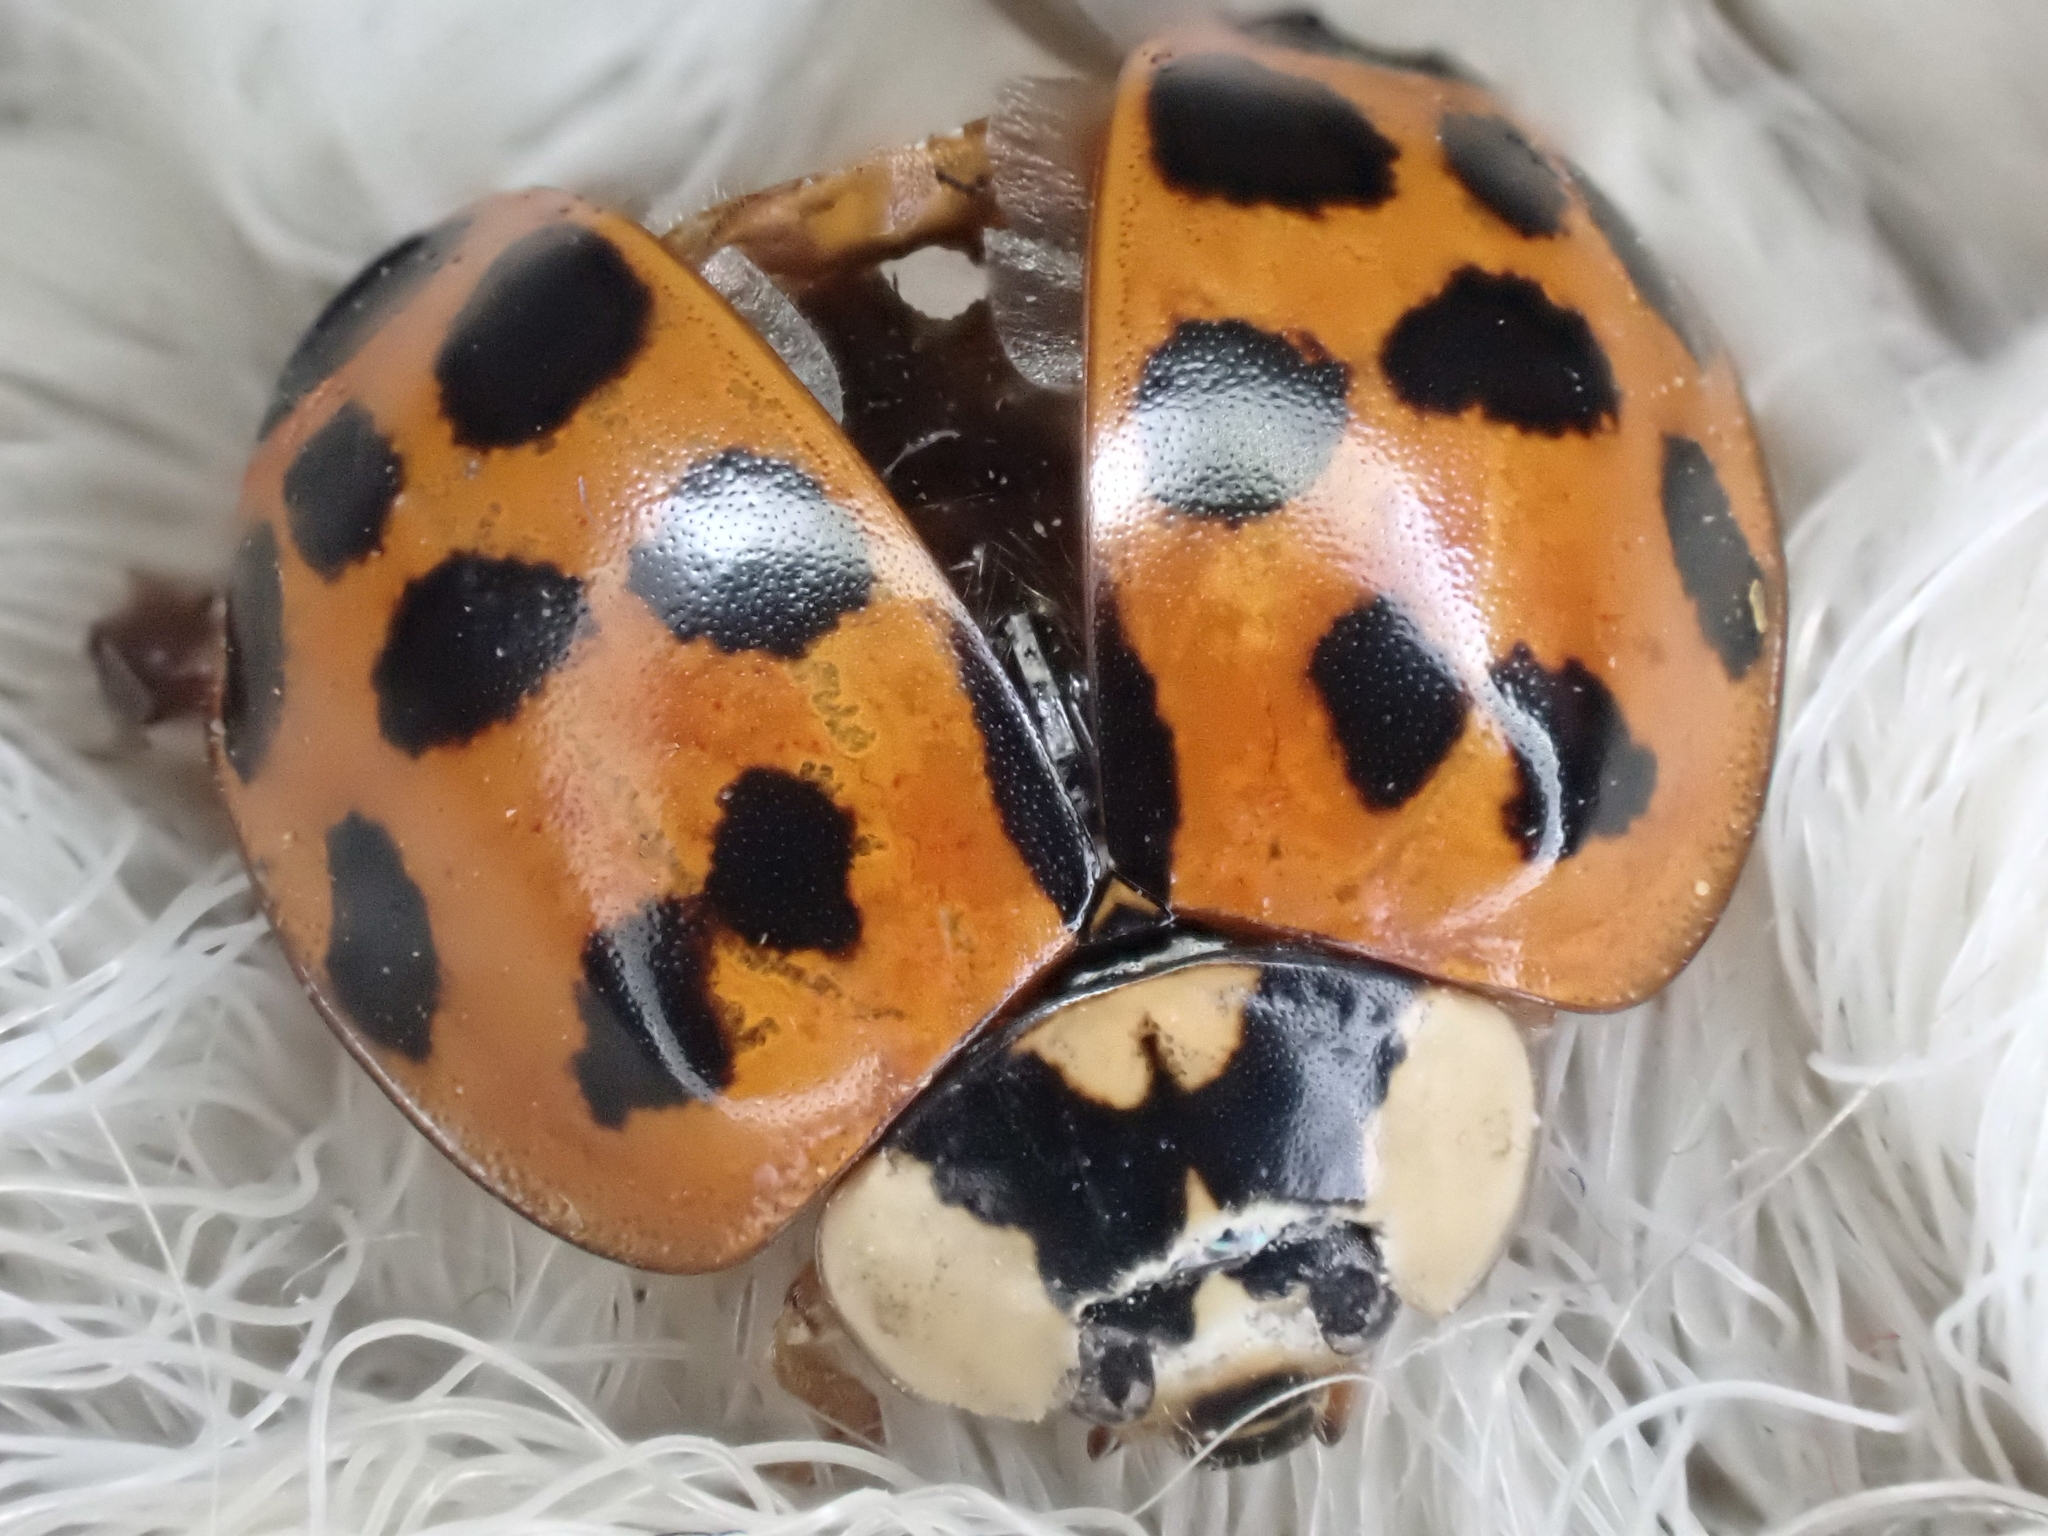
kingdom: Animalia
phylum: Arthropoda
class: Insecta
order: Coleoptera
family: Coccinellidae
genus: Harmonia
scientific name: Harmonia axyridis
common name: Harlequin ladybird
